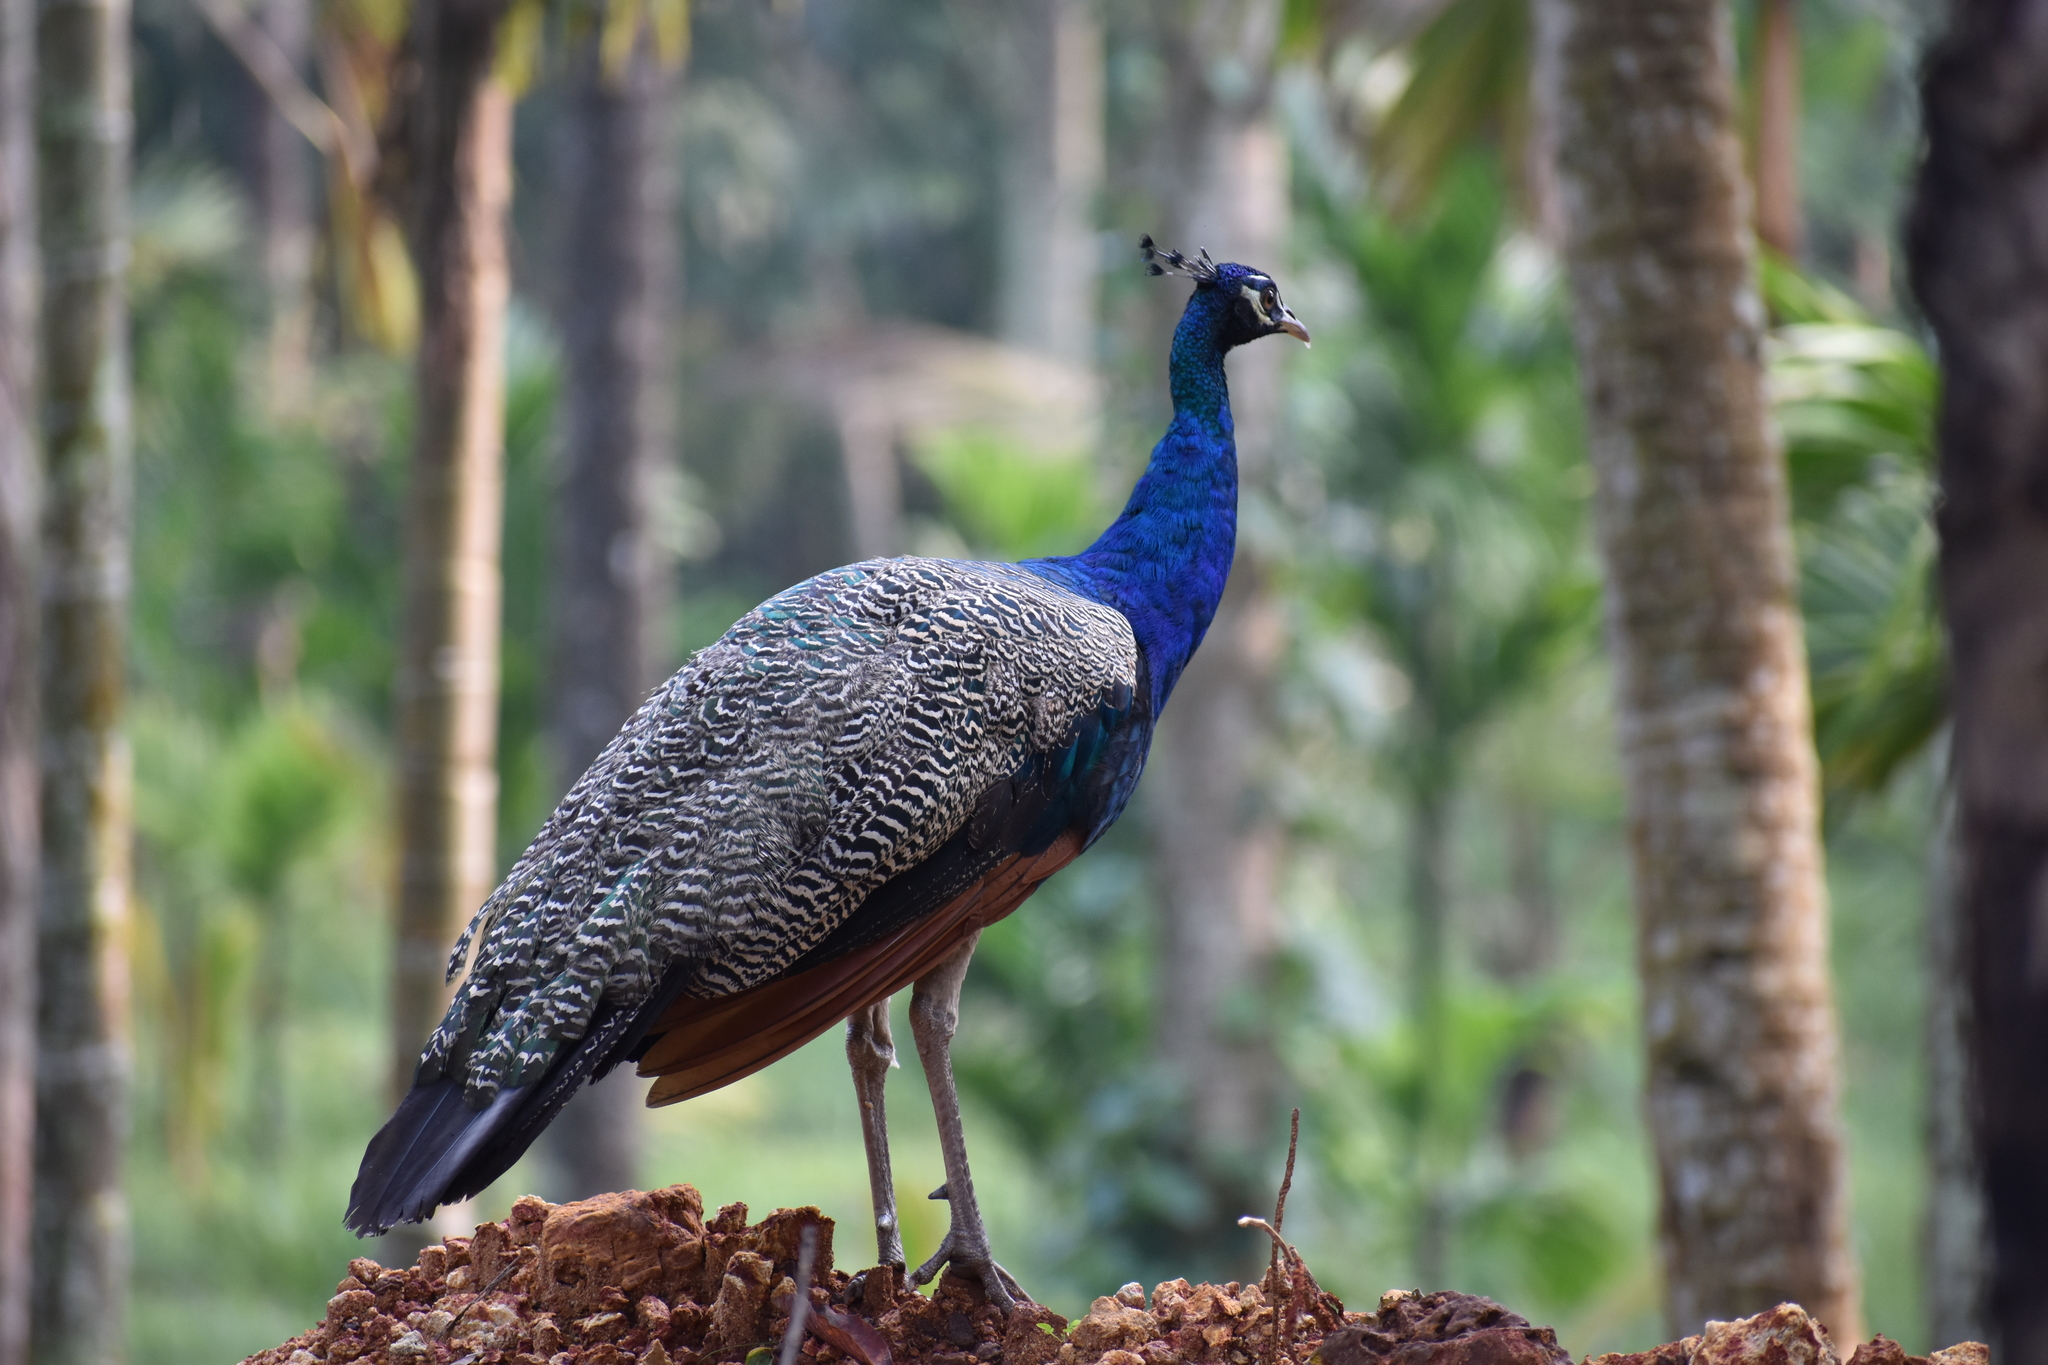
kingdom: Animalia
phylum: Chordata
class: Aves
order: Galliformes
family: Phasianidae
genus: Pavo
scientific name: Pavo cristatus
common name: Indian peafowl
